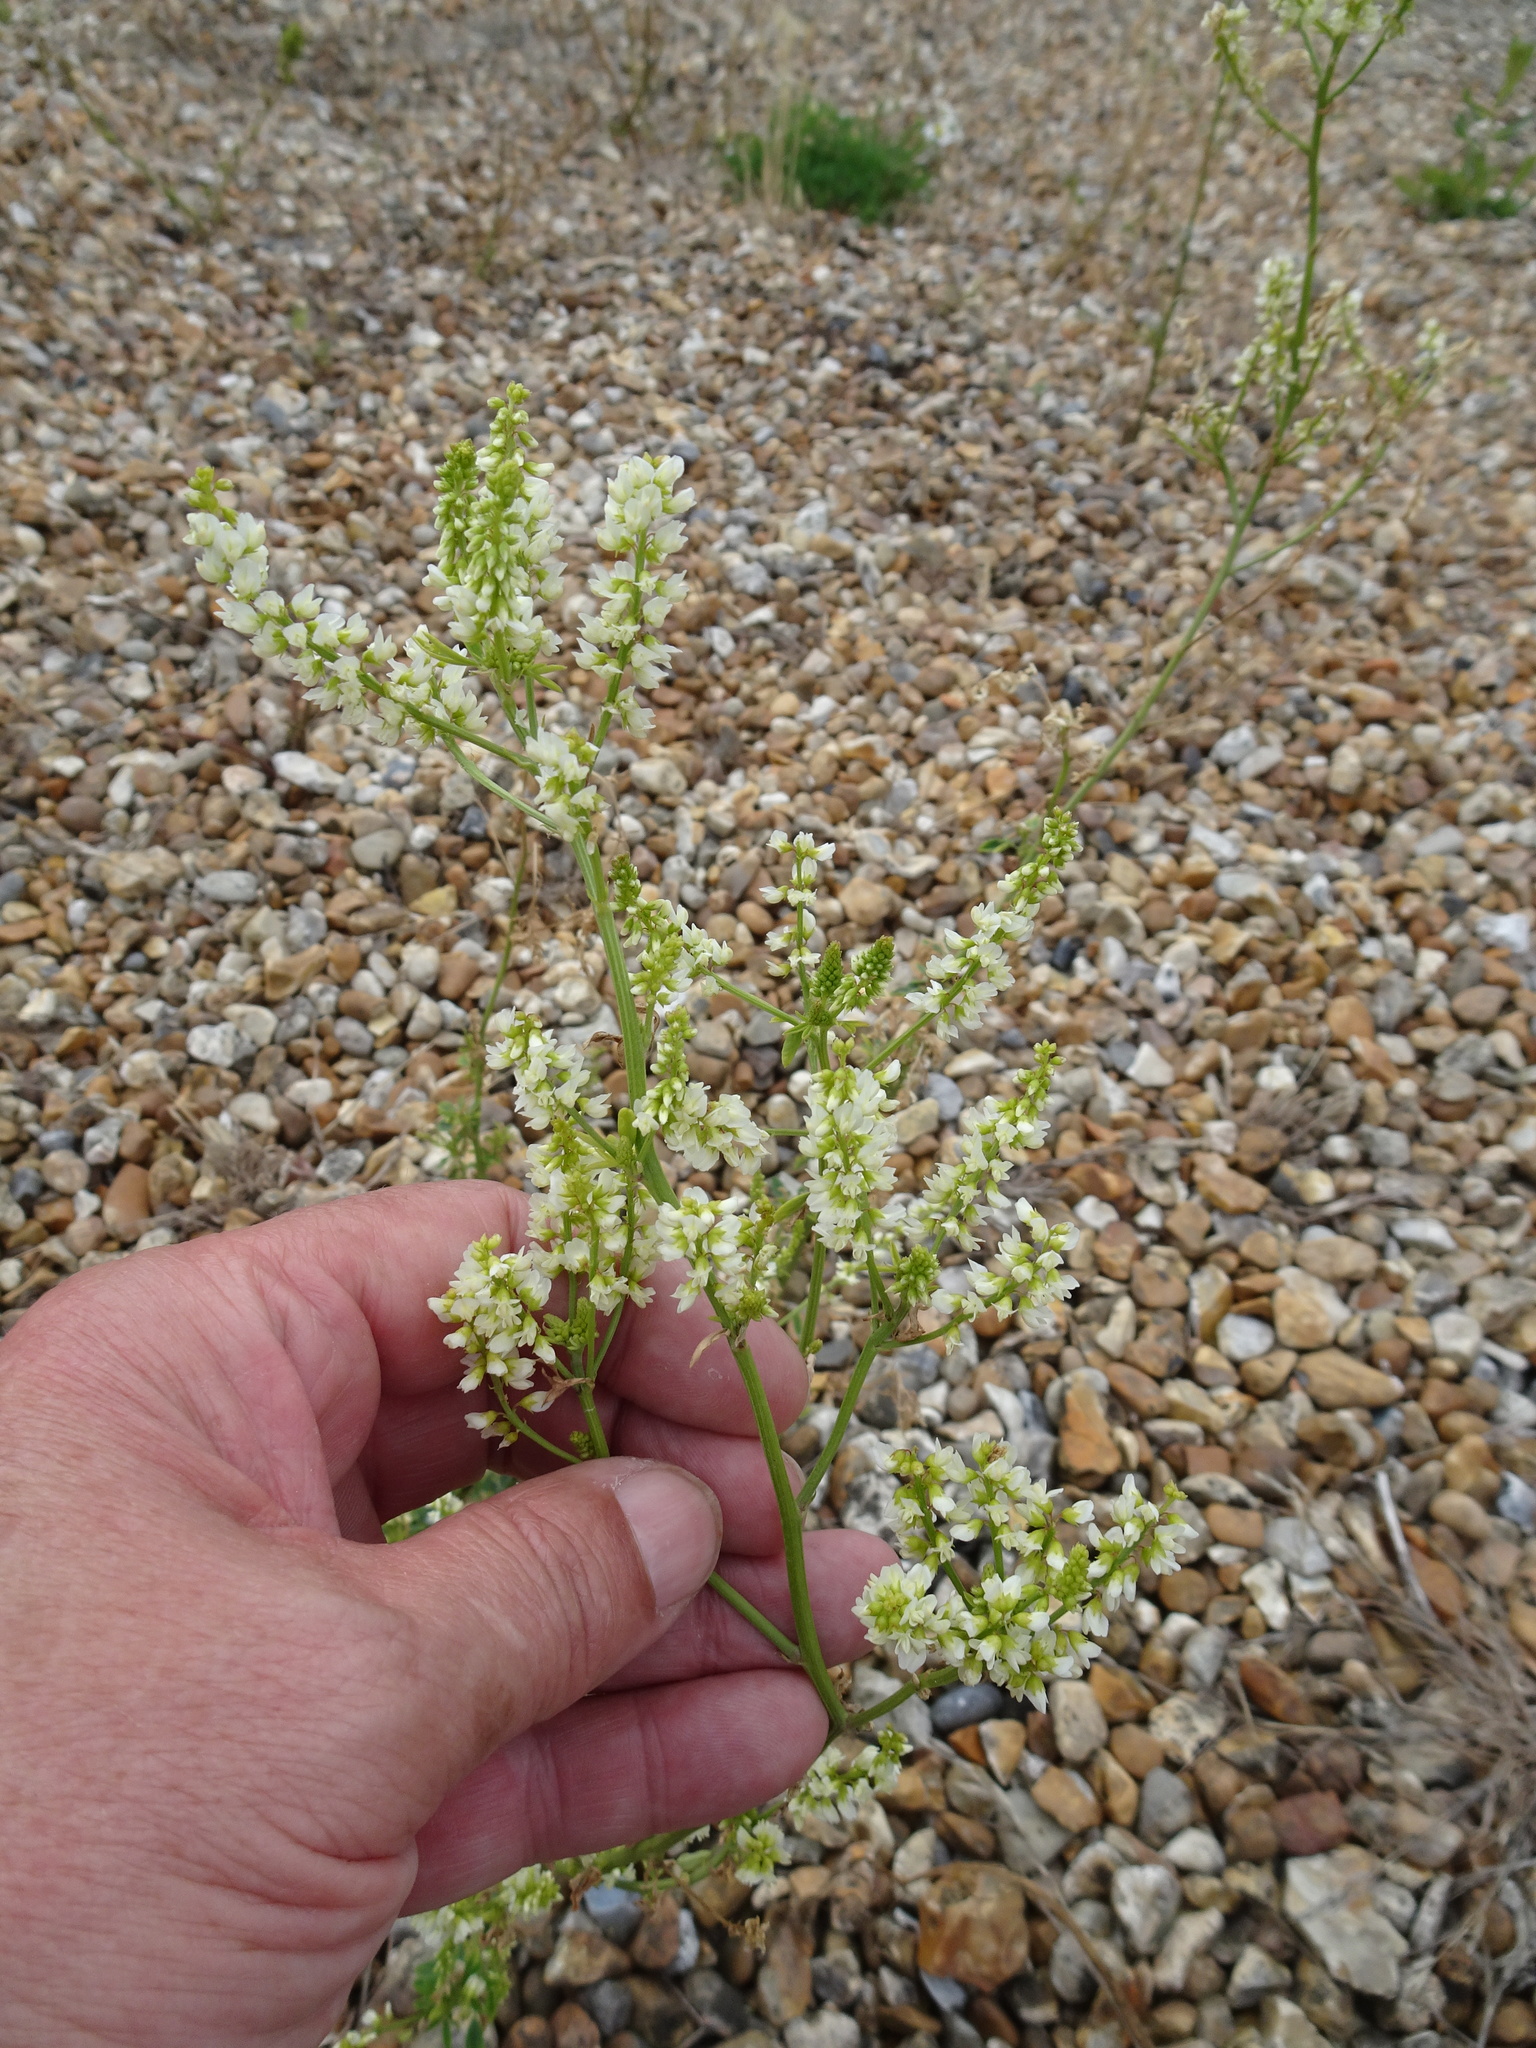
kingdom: Plantae
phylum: Tracheophyta
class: Magnoliopsida
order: Fabales
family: Fabaceae
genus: Melilotus
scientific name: Melilotus albus
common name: White melilot
